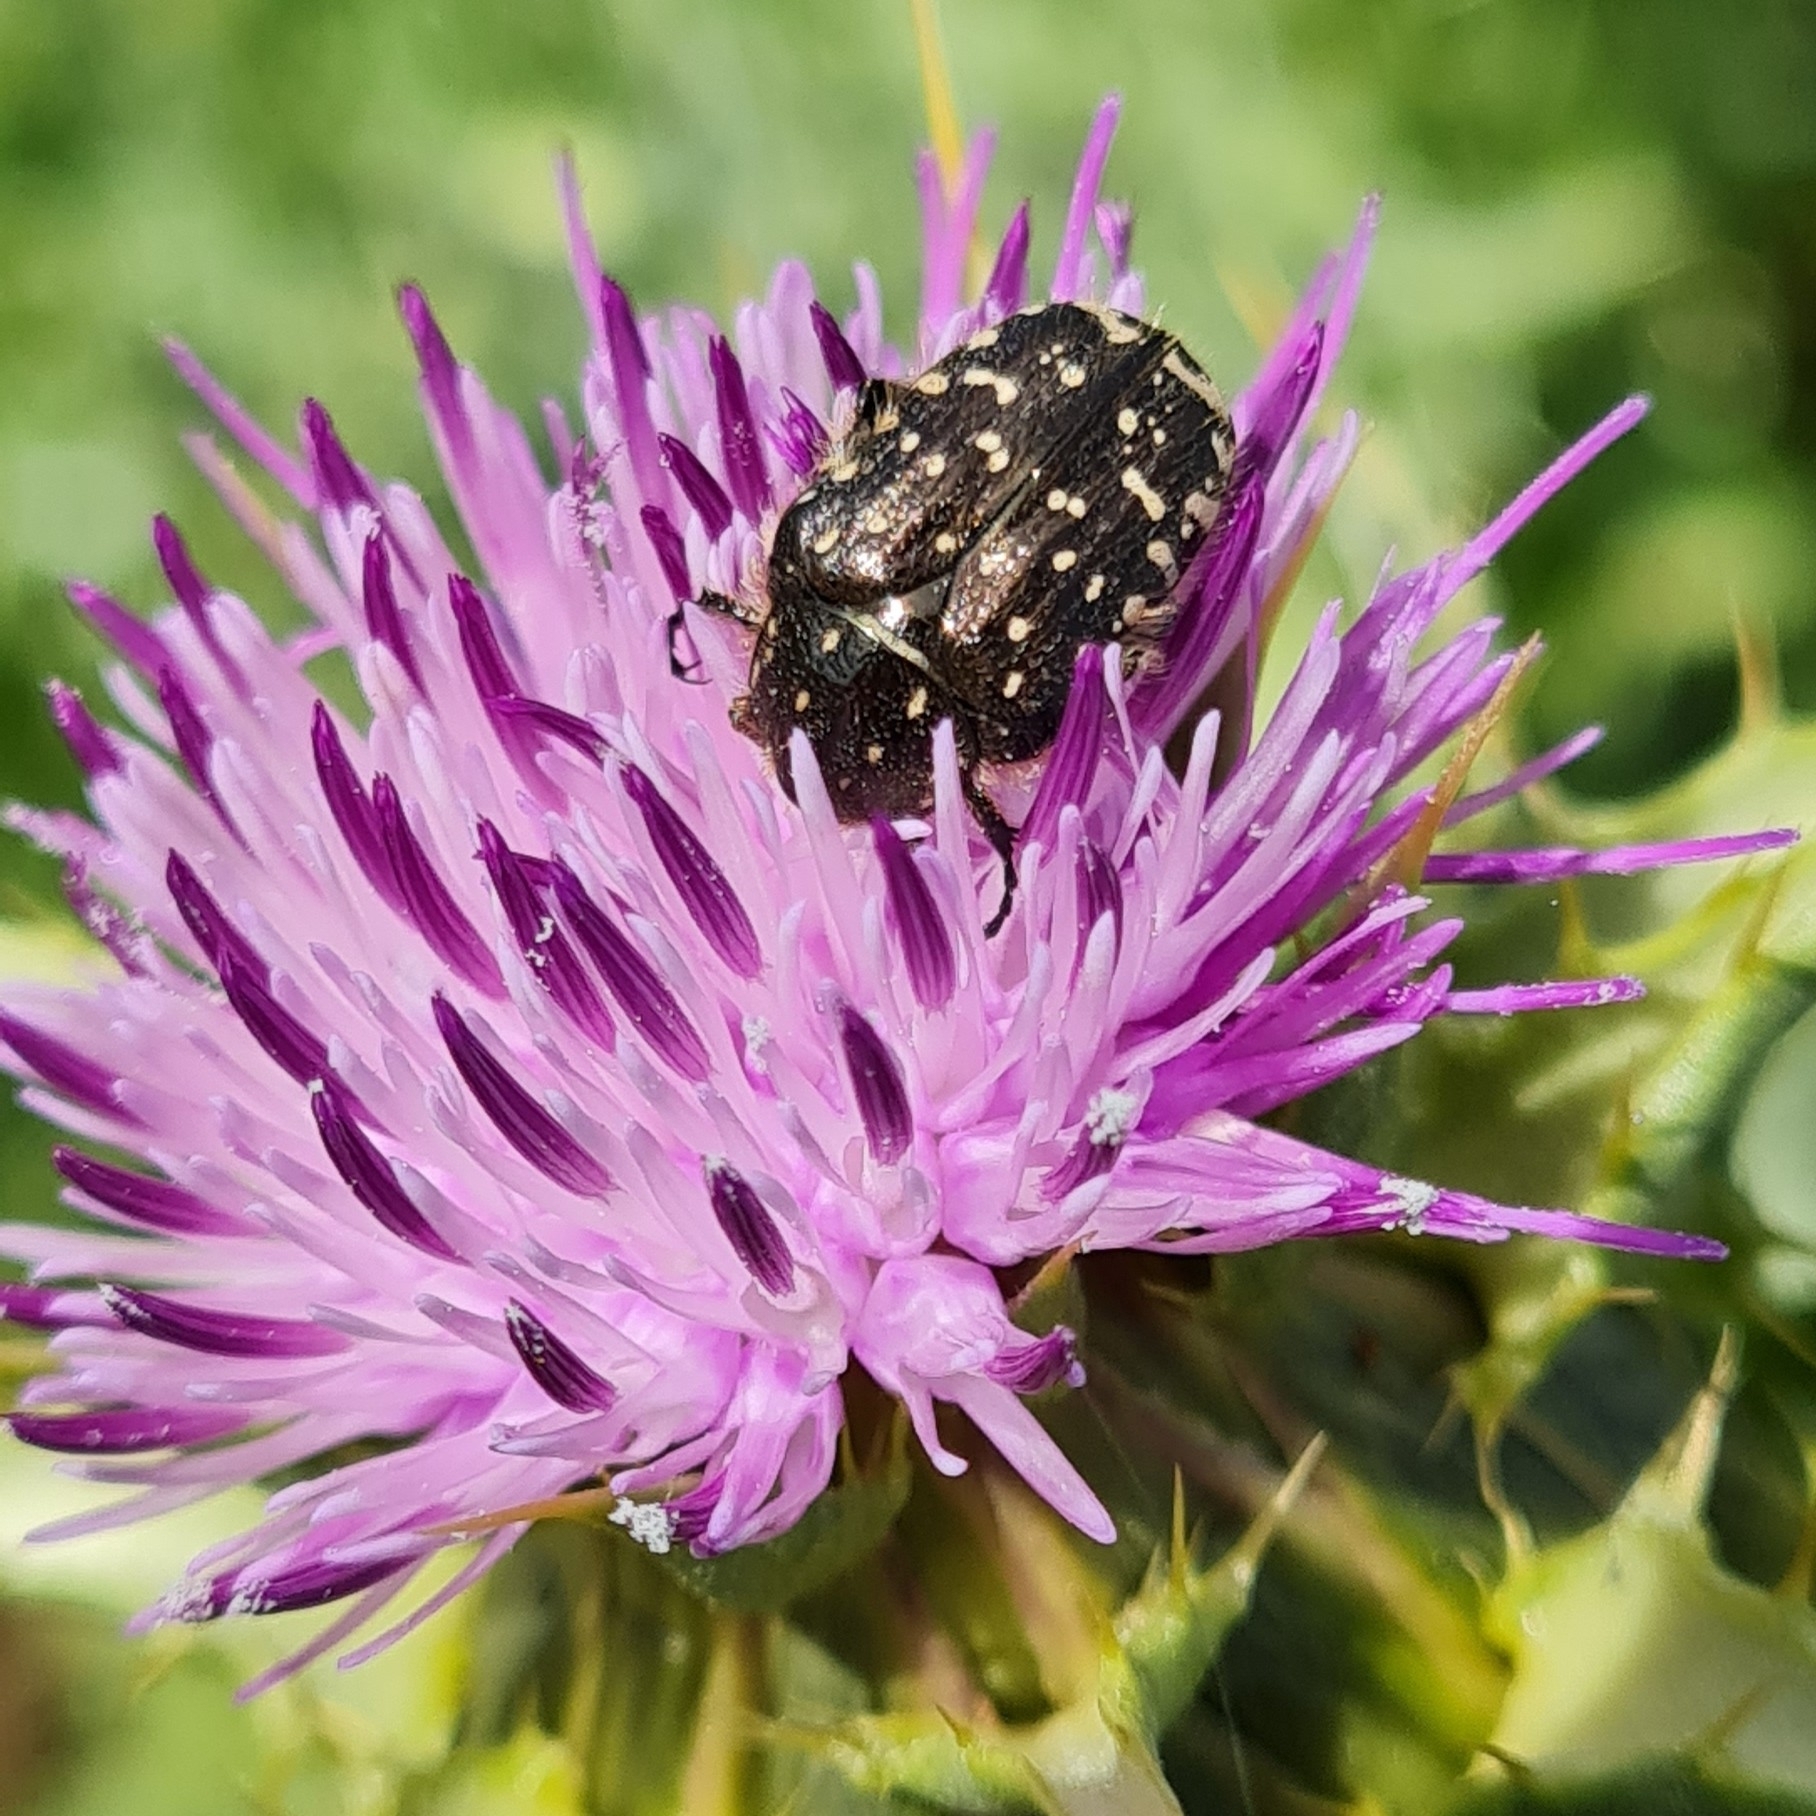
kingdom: Animalia
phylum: Arthropoda
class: Insecta
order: Coleoptera
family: Scarabaeidae
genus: Oxythyrea
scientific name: Oxythyrea funesta
